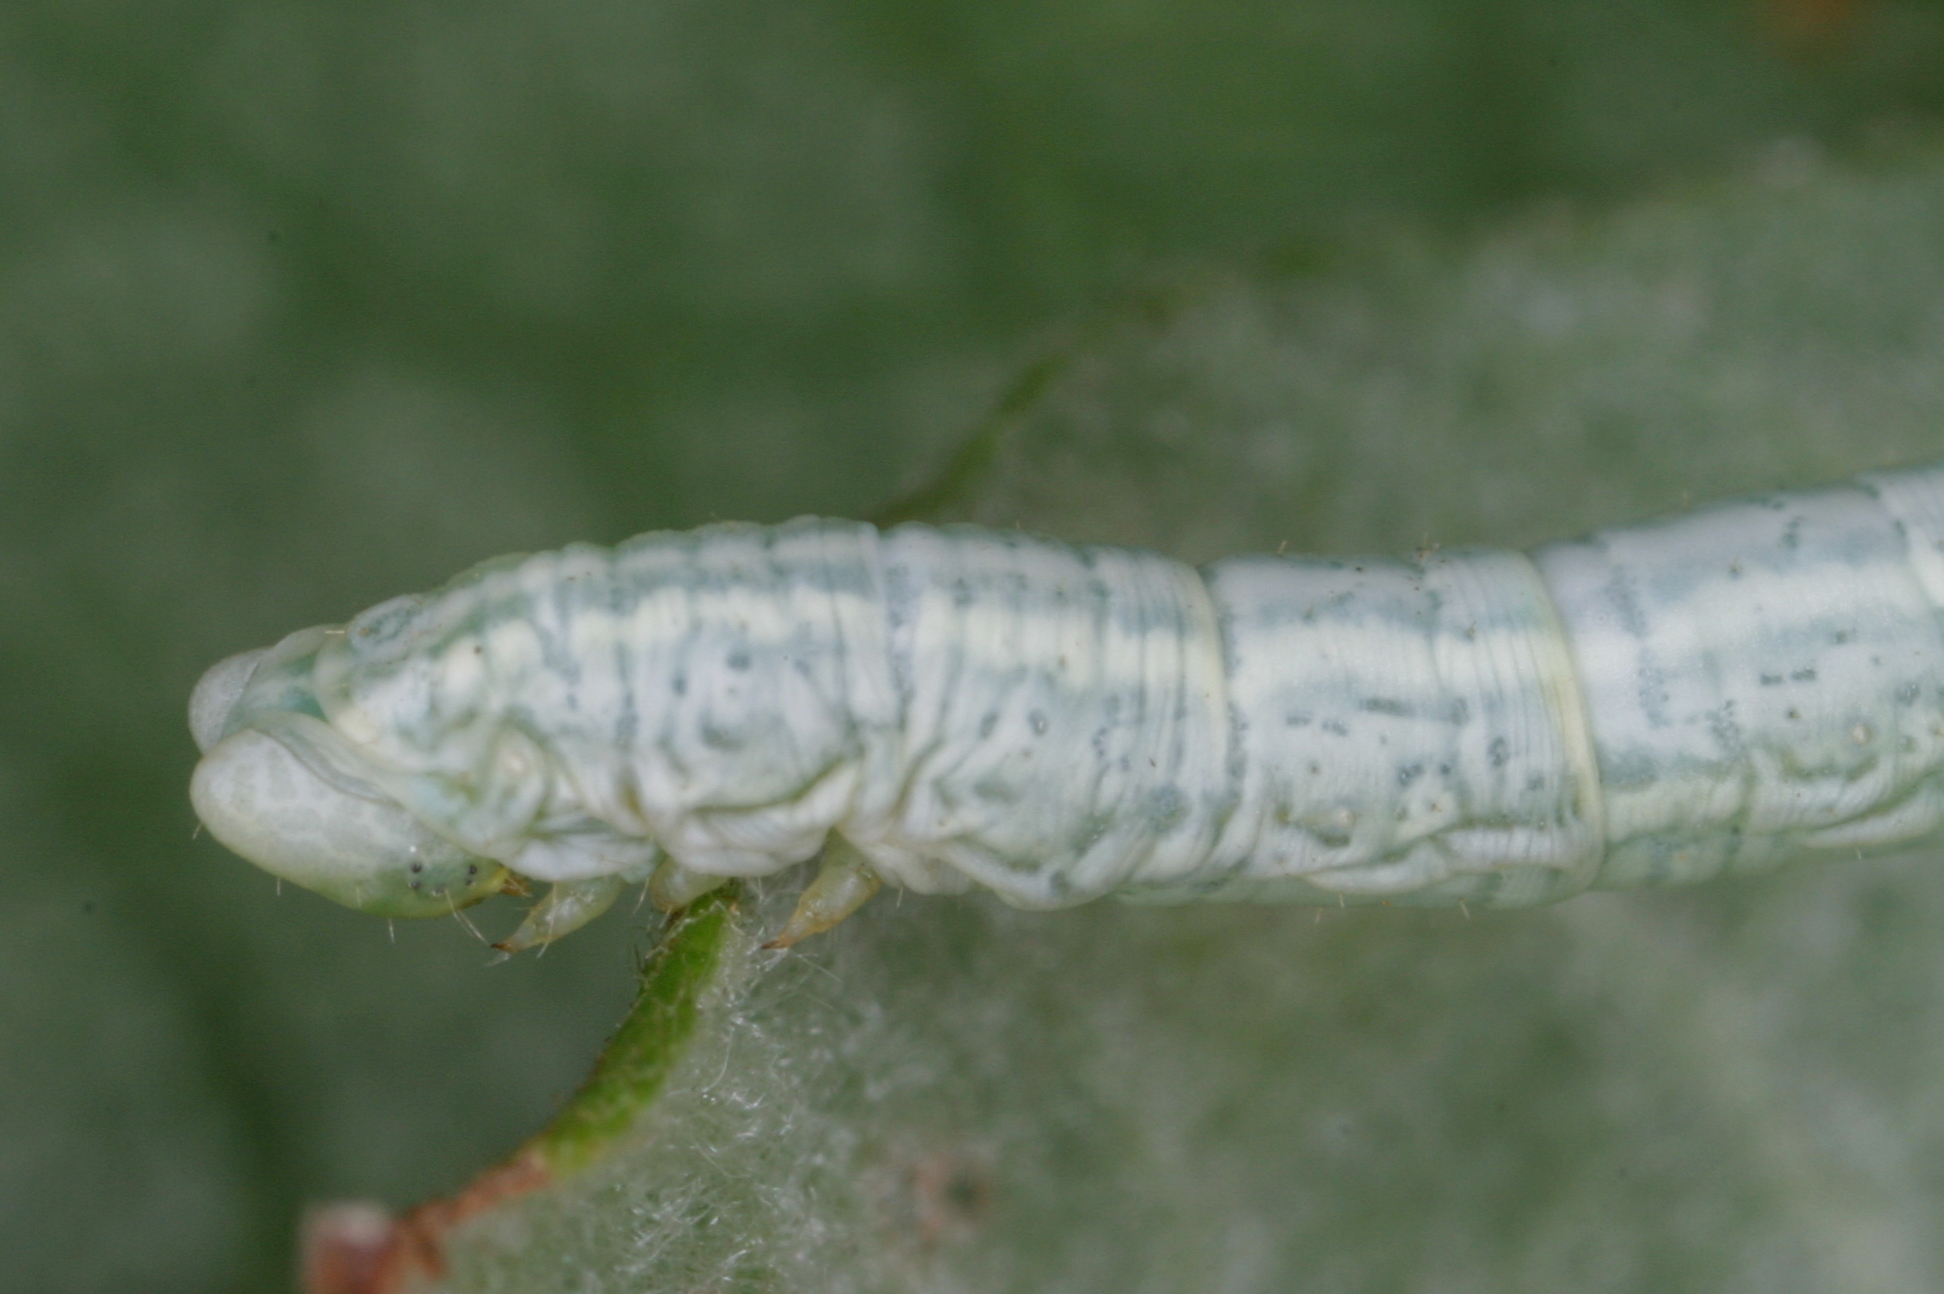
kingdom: Animalia
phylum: Arthropoda
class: Insecta
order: Lepidoptera
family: Geometridae
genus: Pterapherapteryx
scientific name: Pterapherapteryx sexalata
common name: Small seraphim
